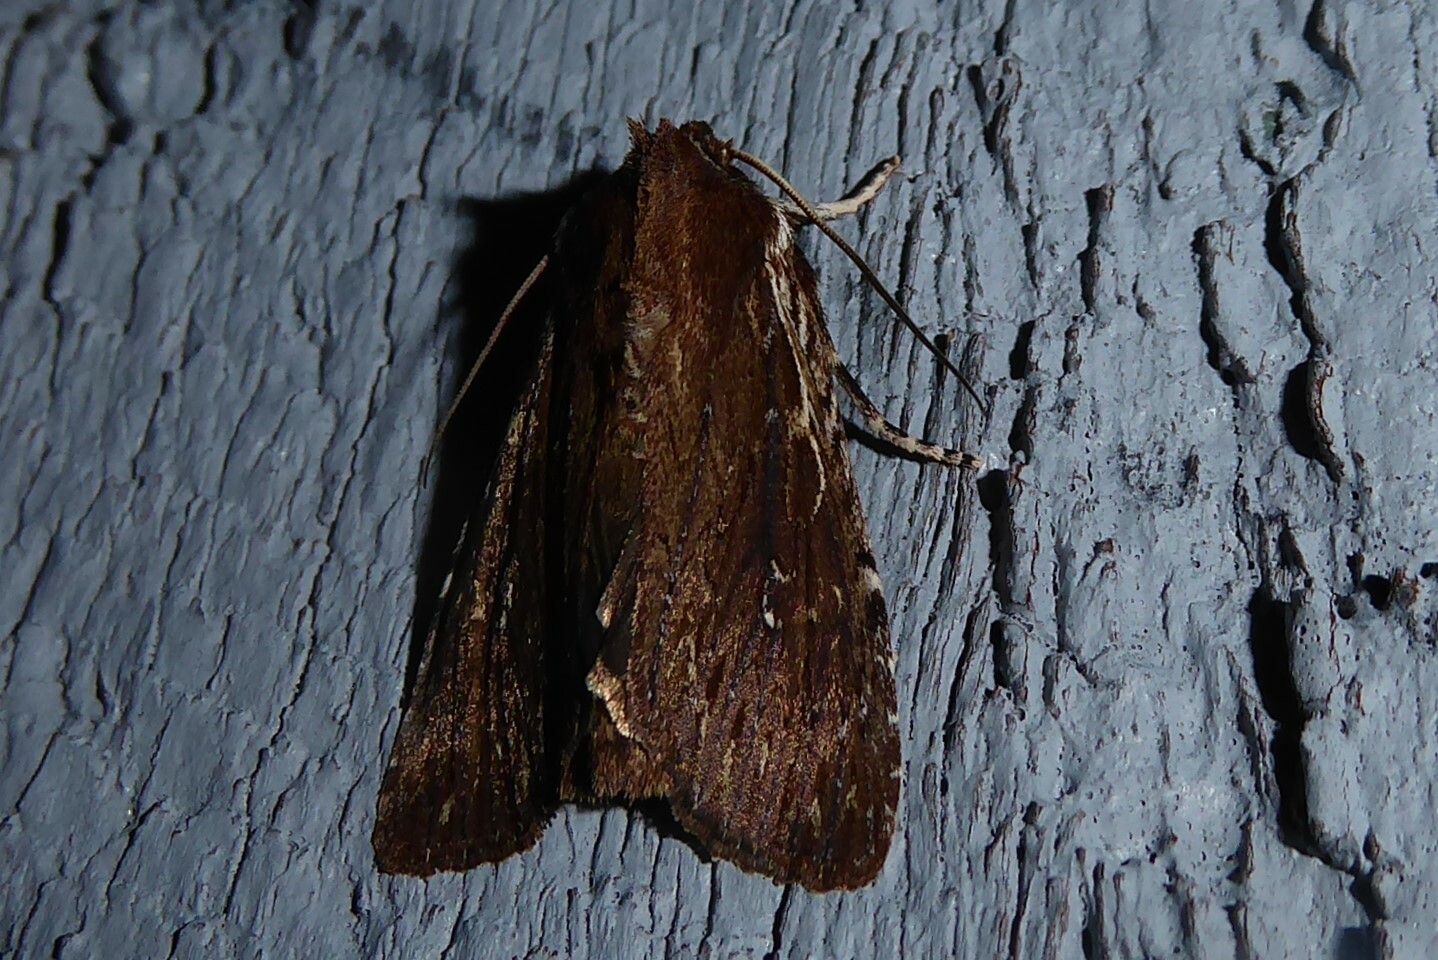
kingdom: Animalia
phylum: Arthropoda
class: Insecta
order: Lepidoptera
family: Noctuidae
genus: Ichneutica
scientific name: Ichneutica
